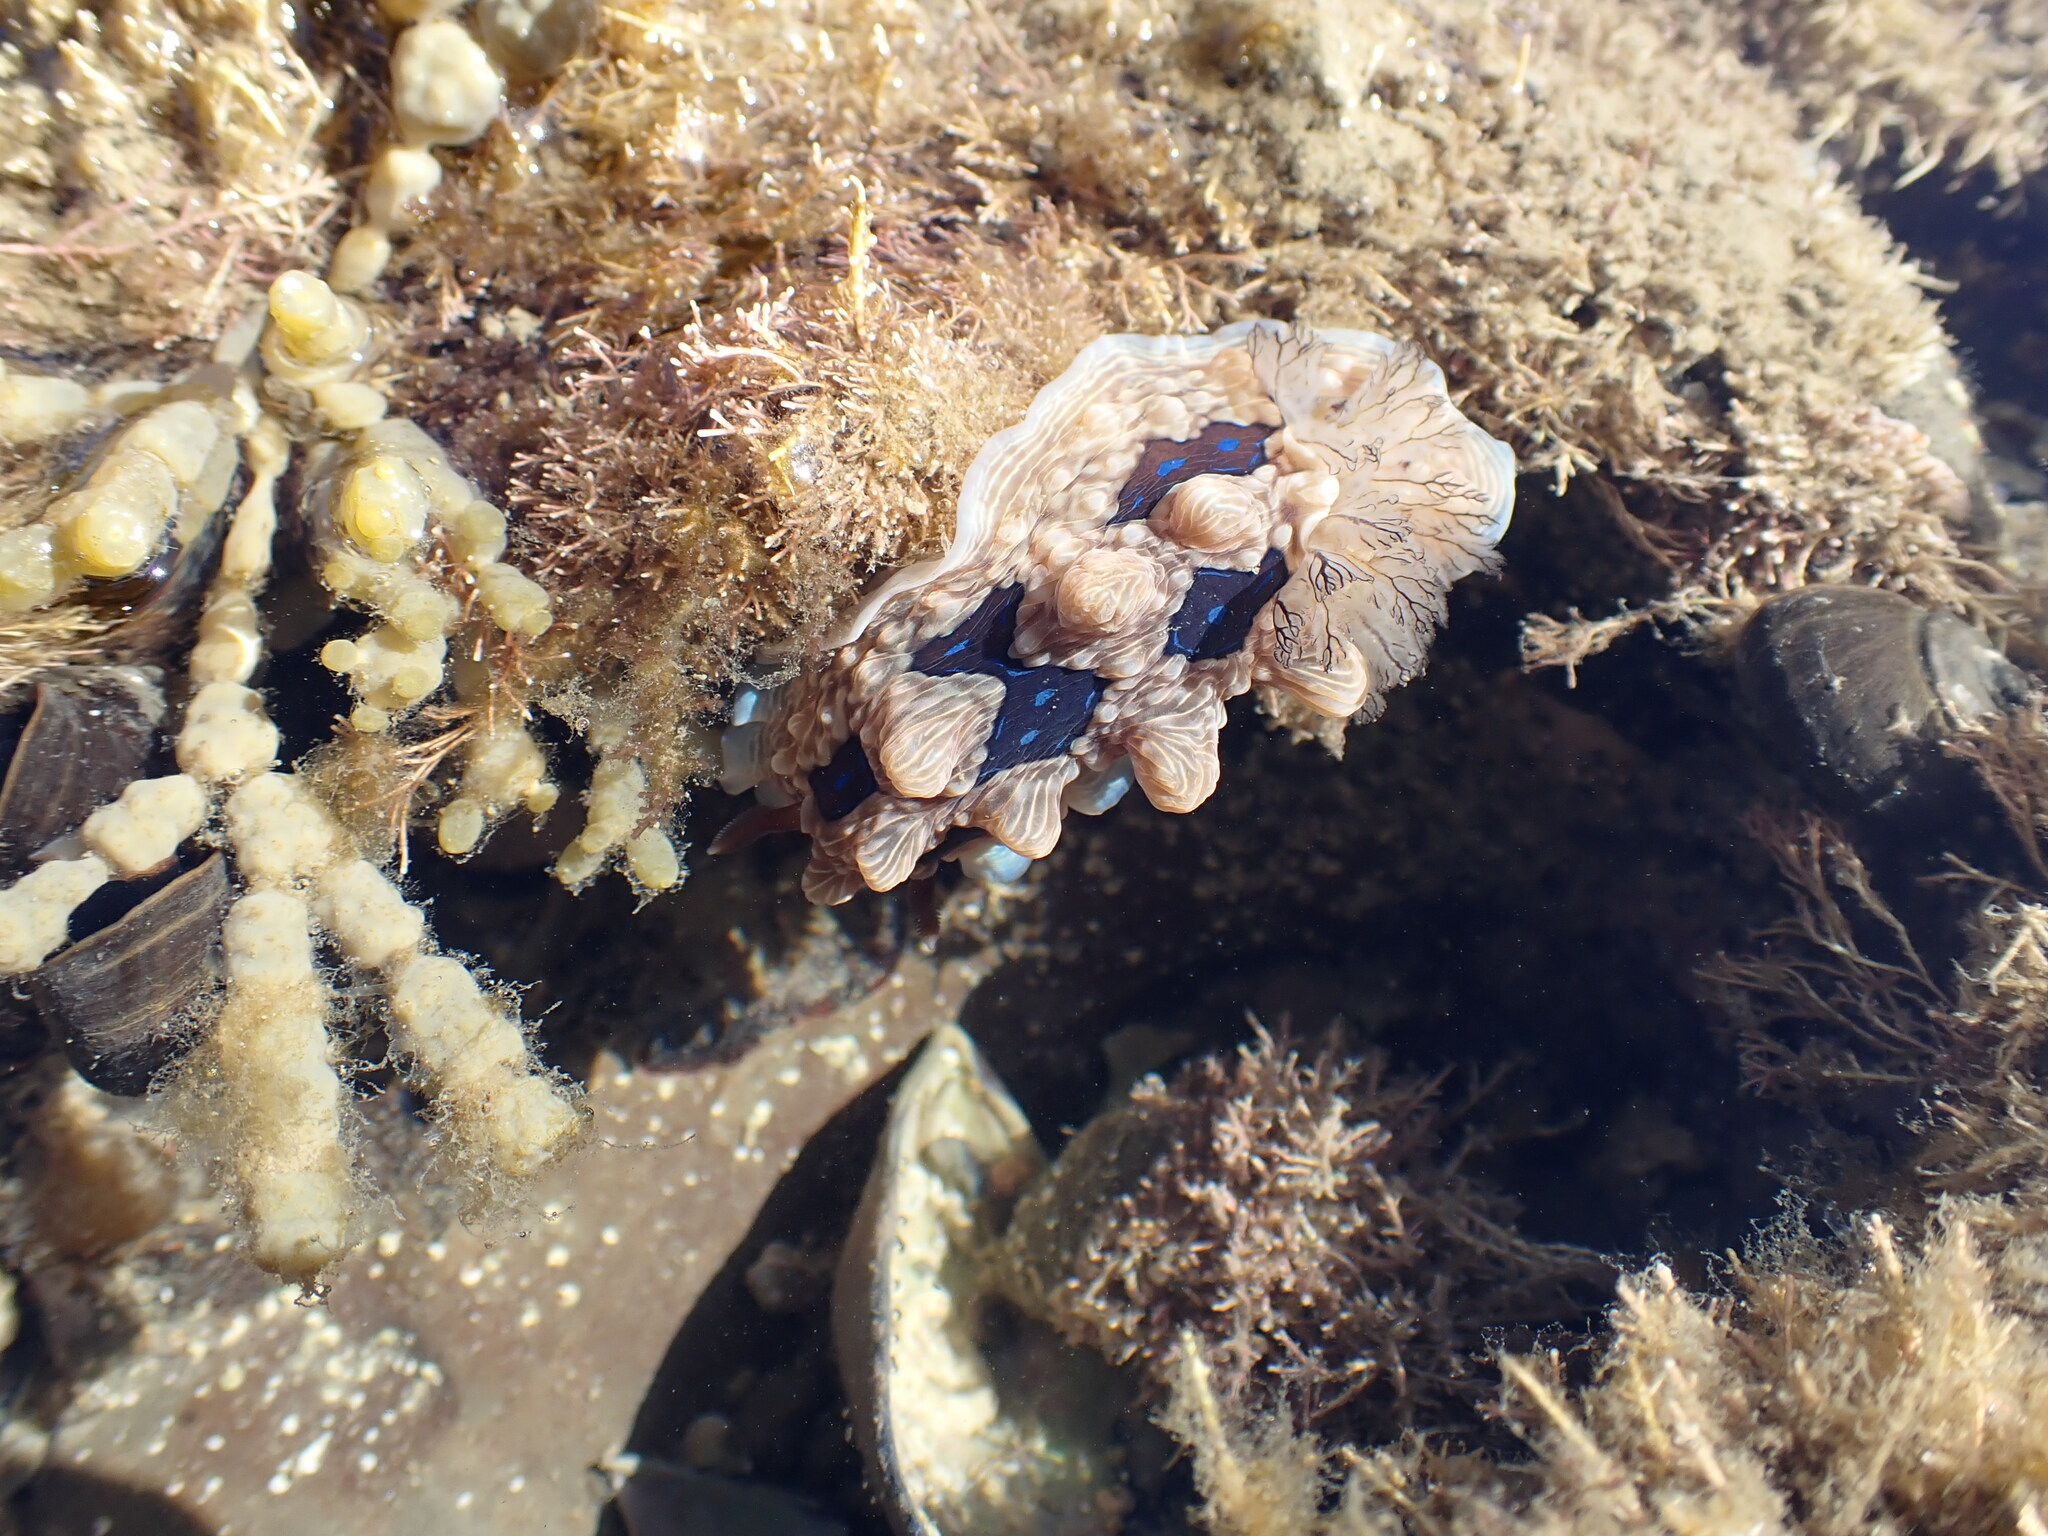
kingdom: Animalia
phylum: Mollusca
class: Gastropoda
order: Nudibranchia
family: Dendrodorididae
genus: Dendrodoris
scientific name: Dendrodoris krusensternii
